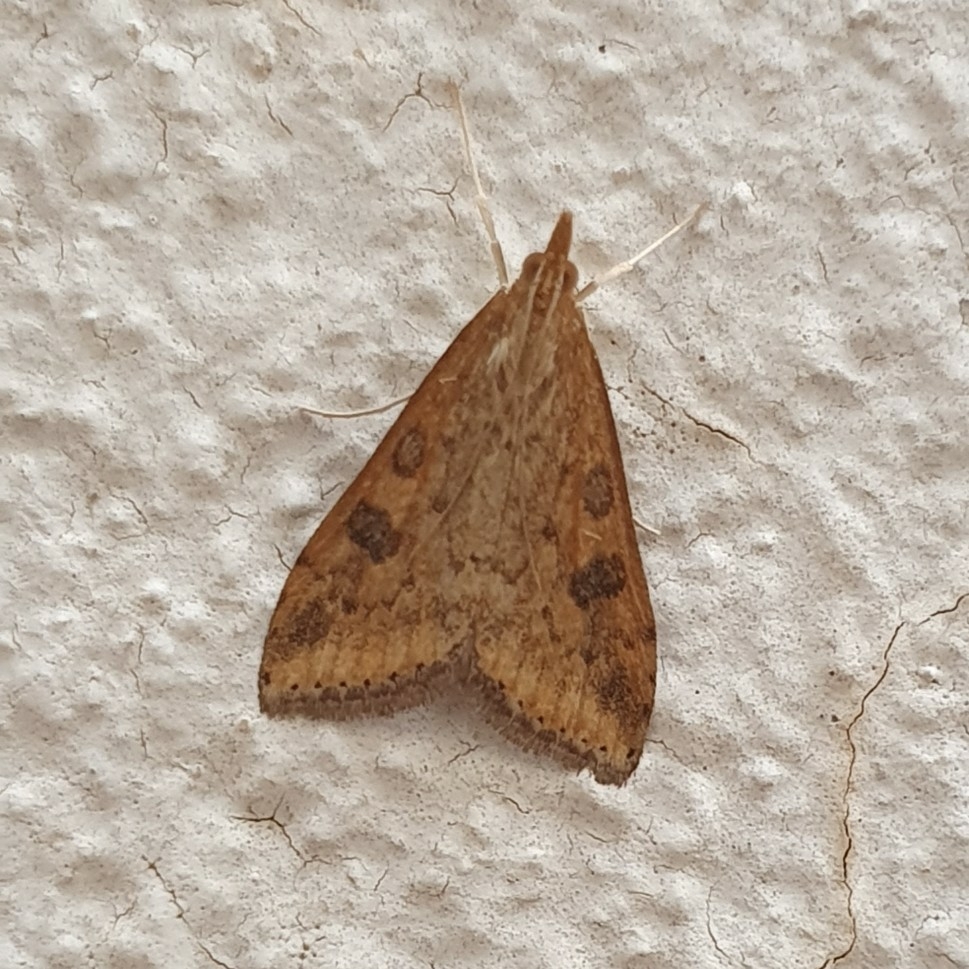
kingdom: Animalia
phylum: Arthropoda
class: Insecta
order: Lepidoptera
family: Crambidae
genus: Udea
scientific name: Udea ferrugalis
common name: Rusty dot
